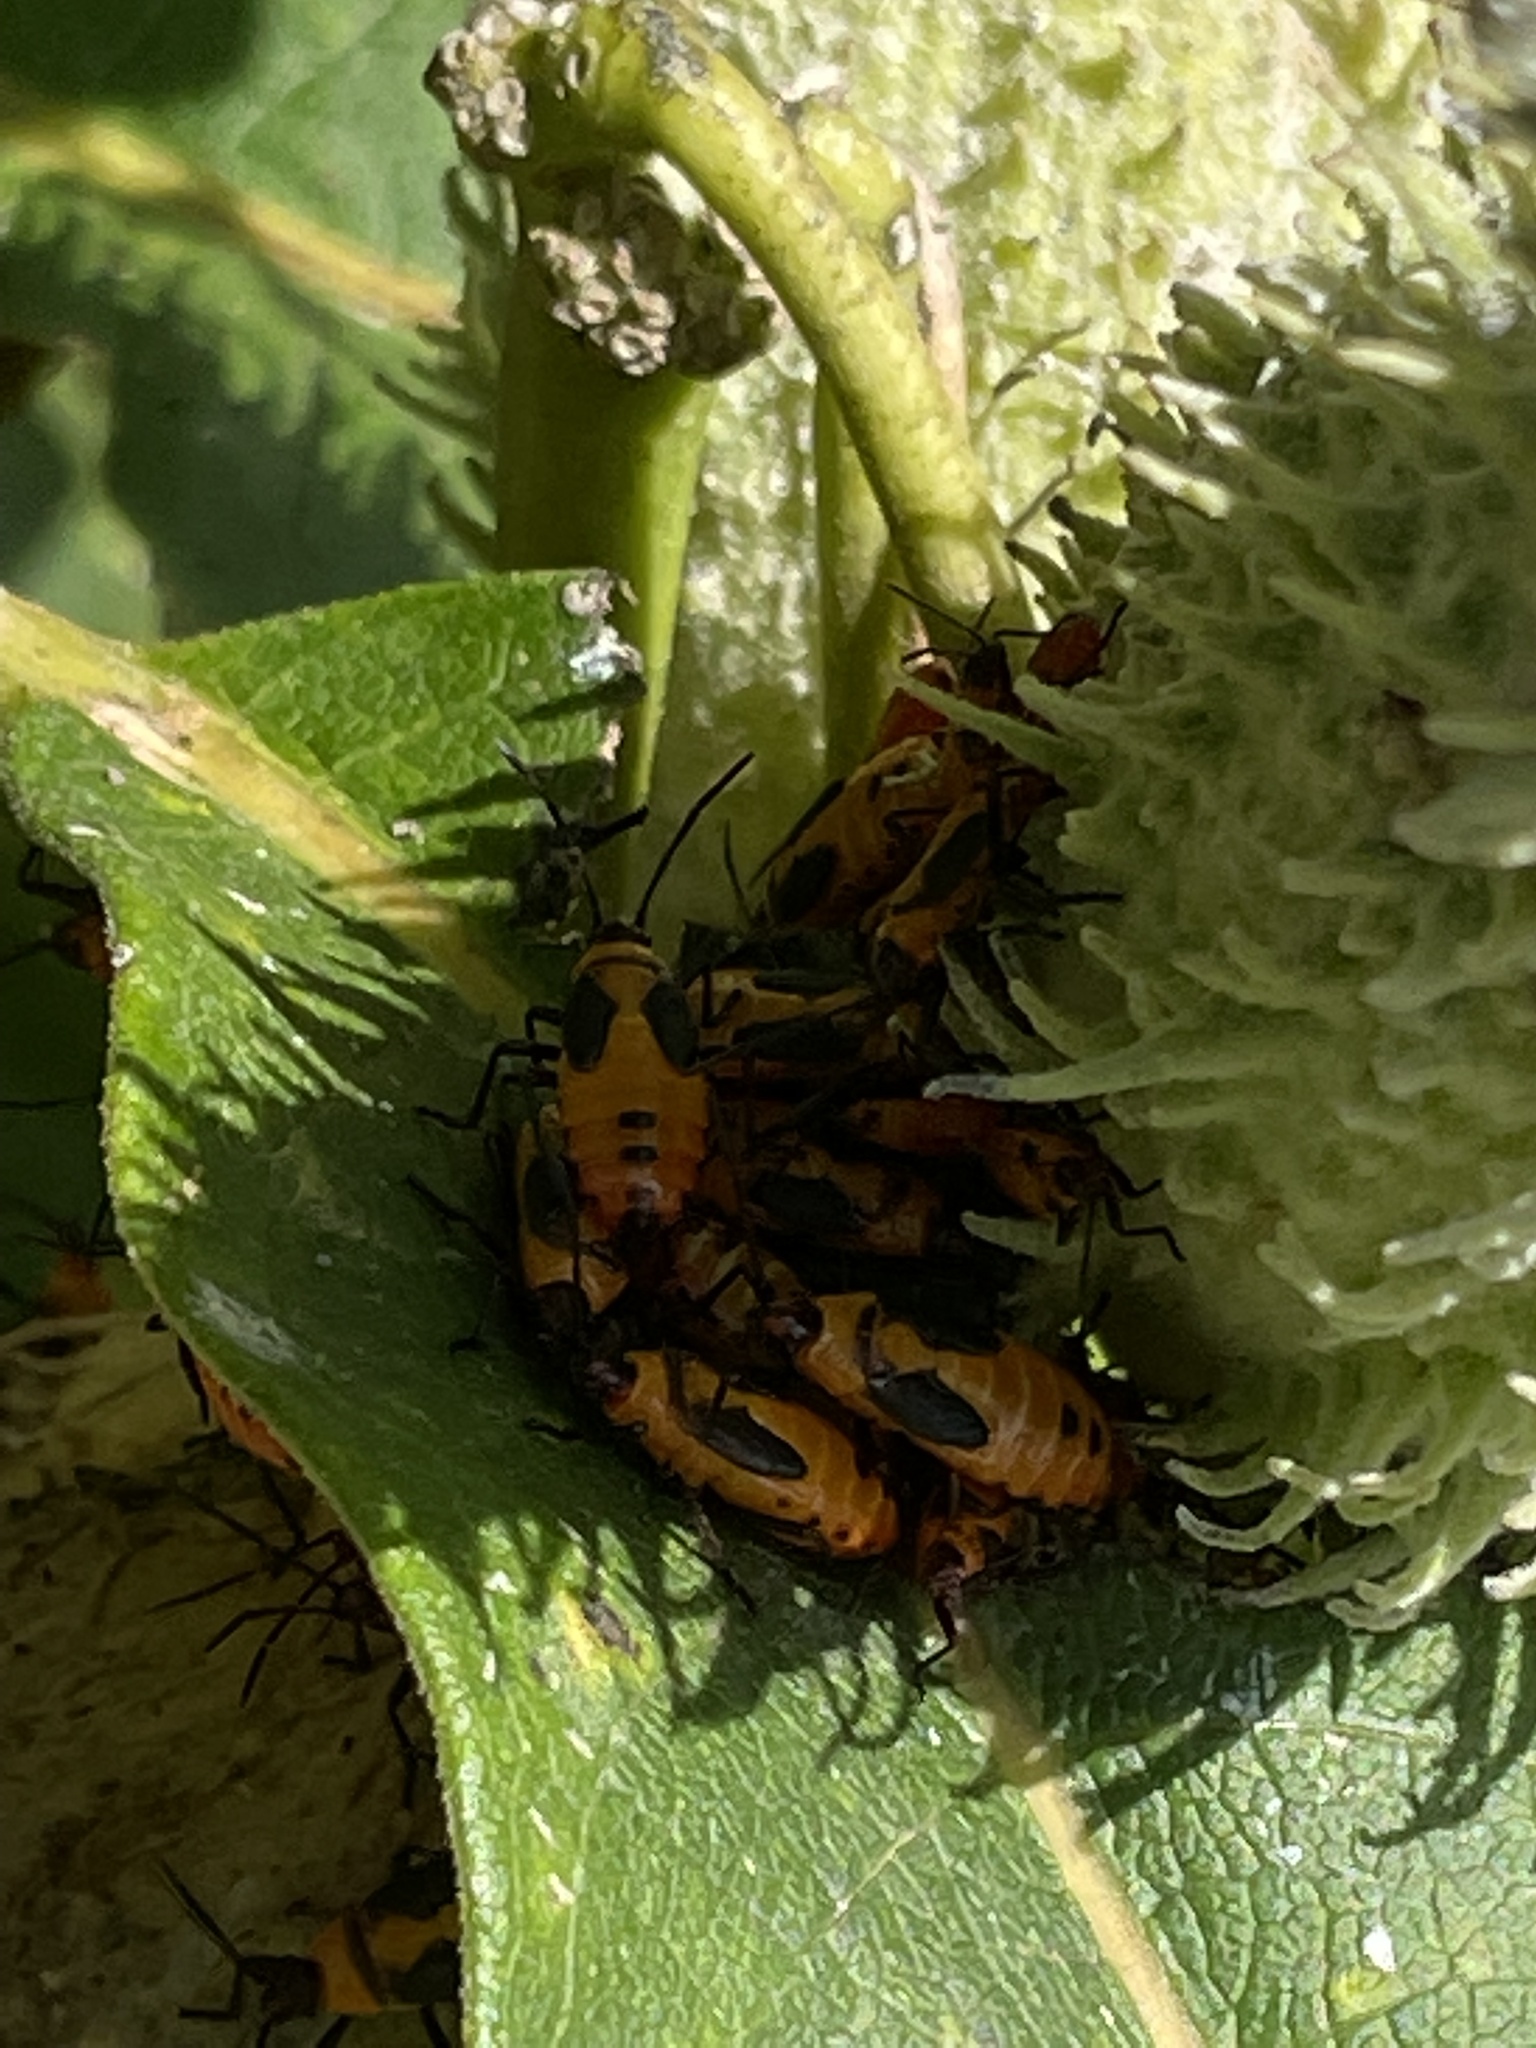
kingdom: Animalia
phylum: Arthropoda
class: Insecta
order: Hemiptera
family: Lygaeidae
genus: Oncopeltus
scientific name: Oncopeltus fasciatus
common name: Large milkweed bug
